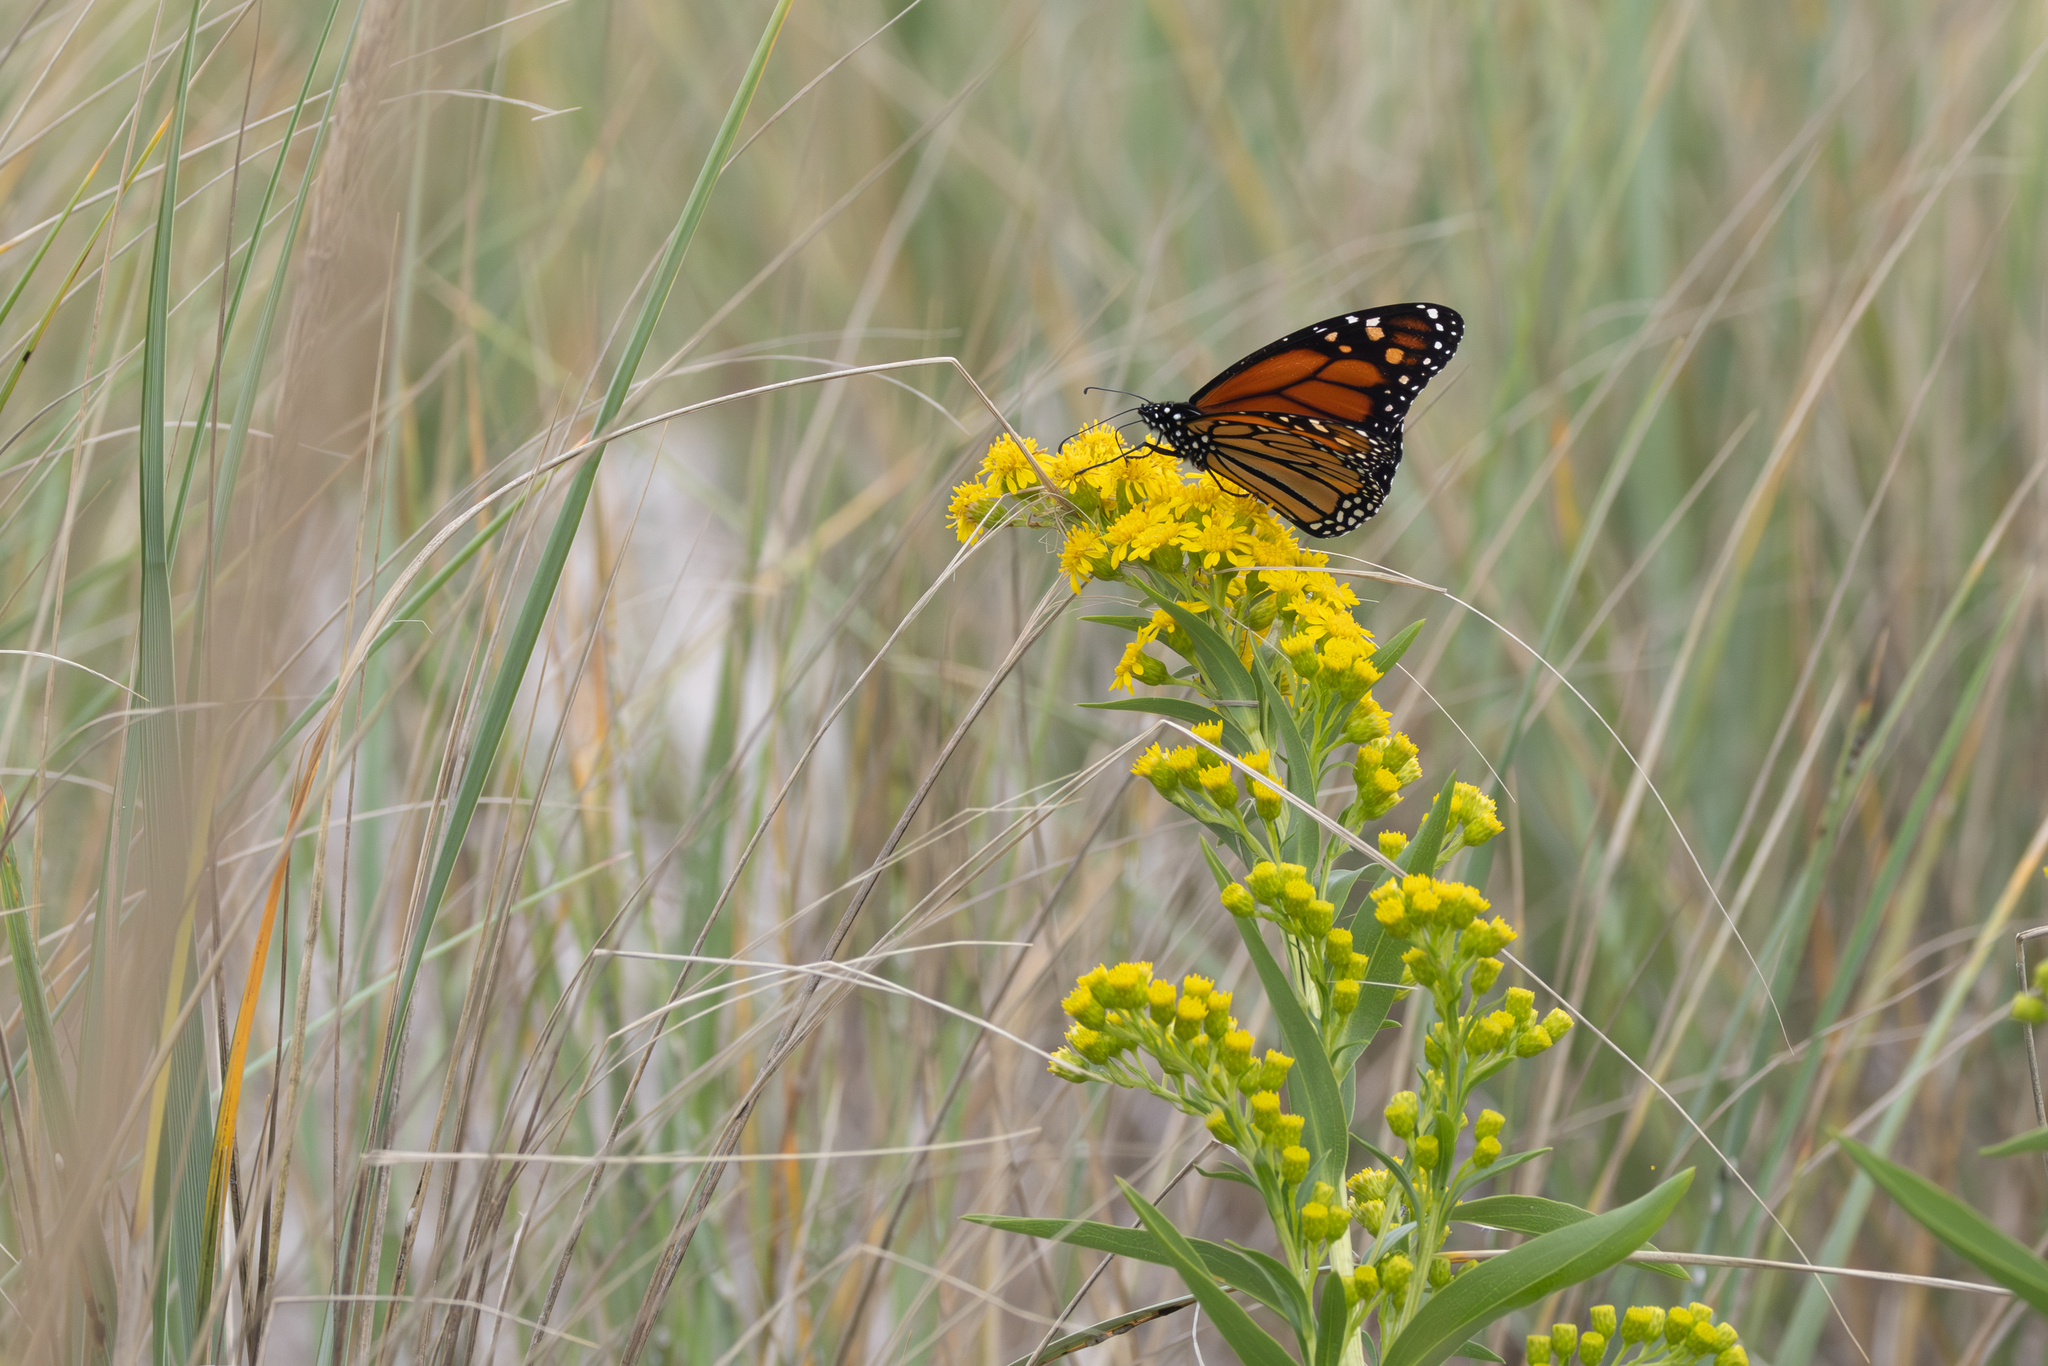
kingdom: Animalia
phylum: Arthropoda
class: Insecta
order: Lepidoptera
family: Nymphalidae
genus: Danaus
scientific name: Danaus plexippus
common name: Monarch
